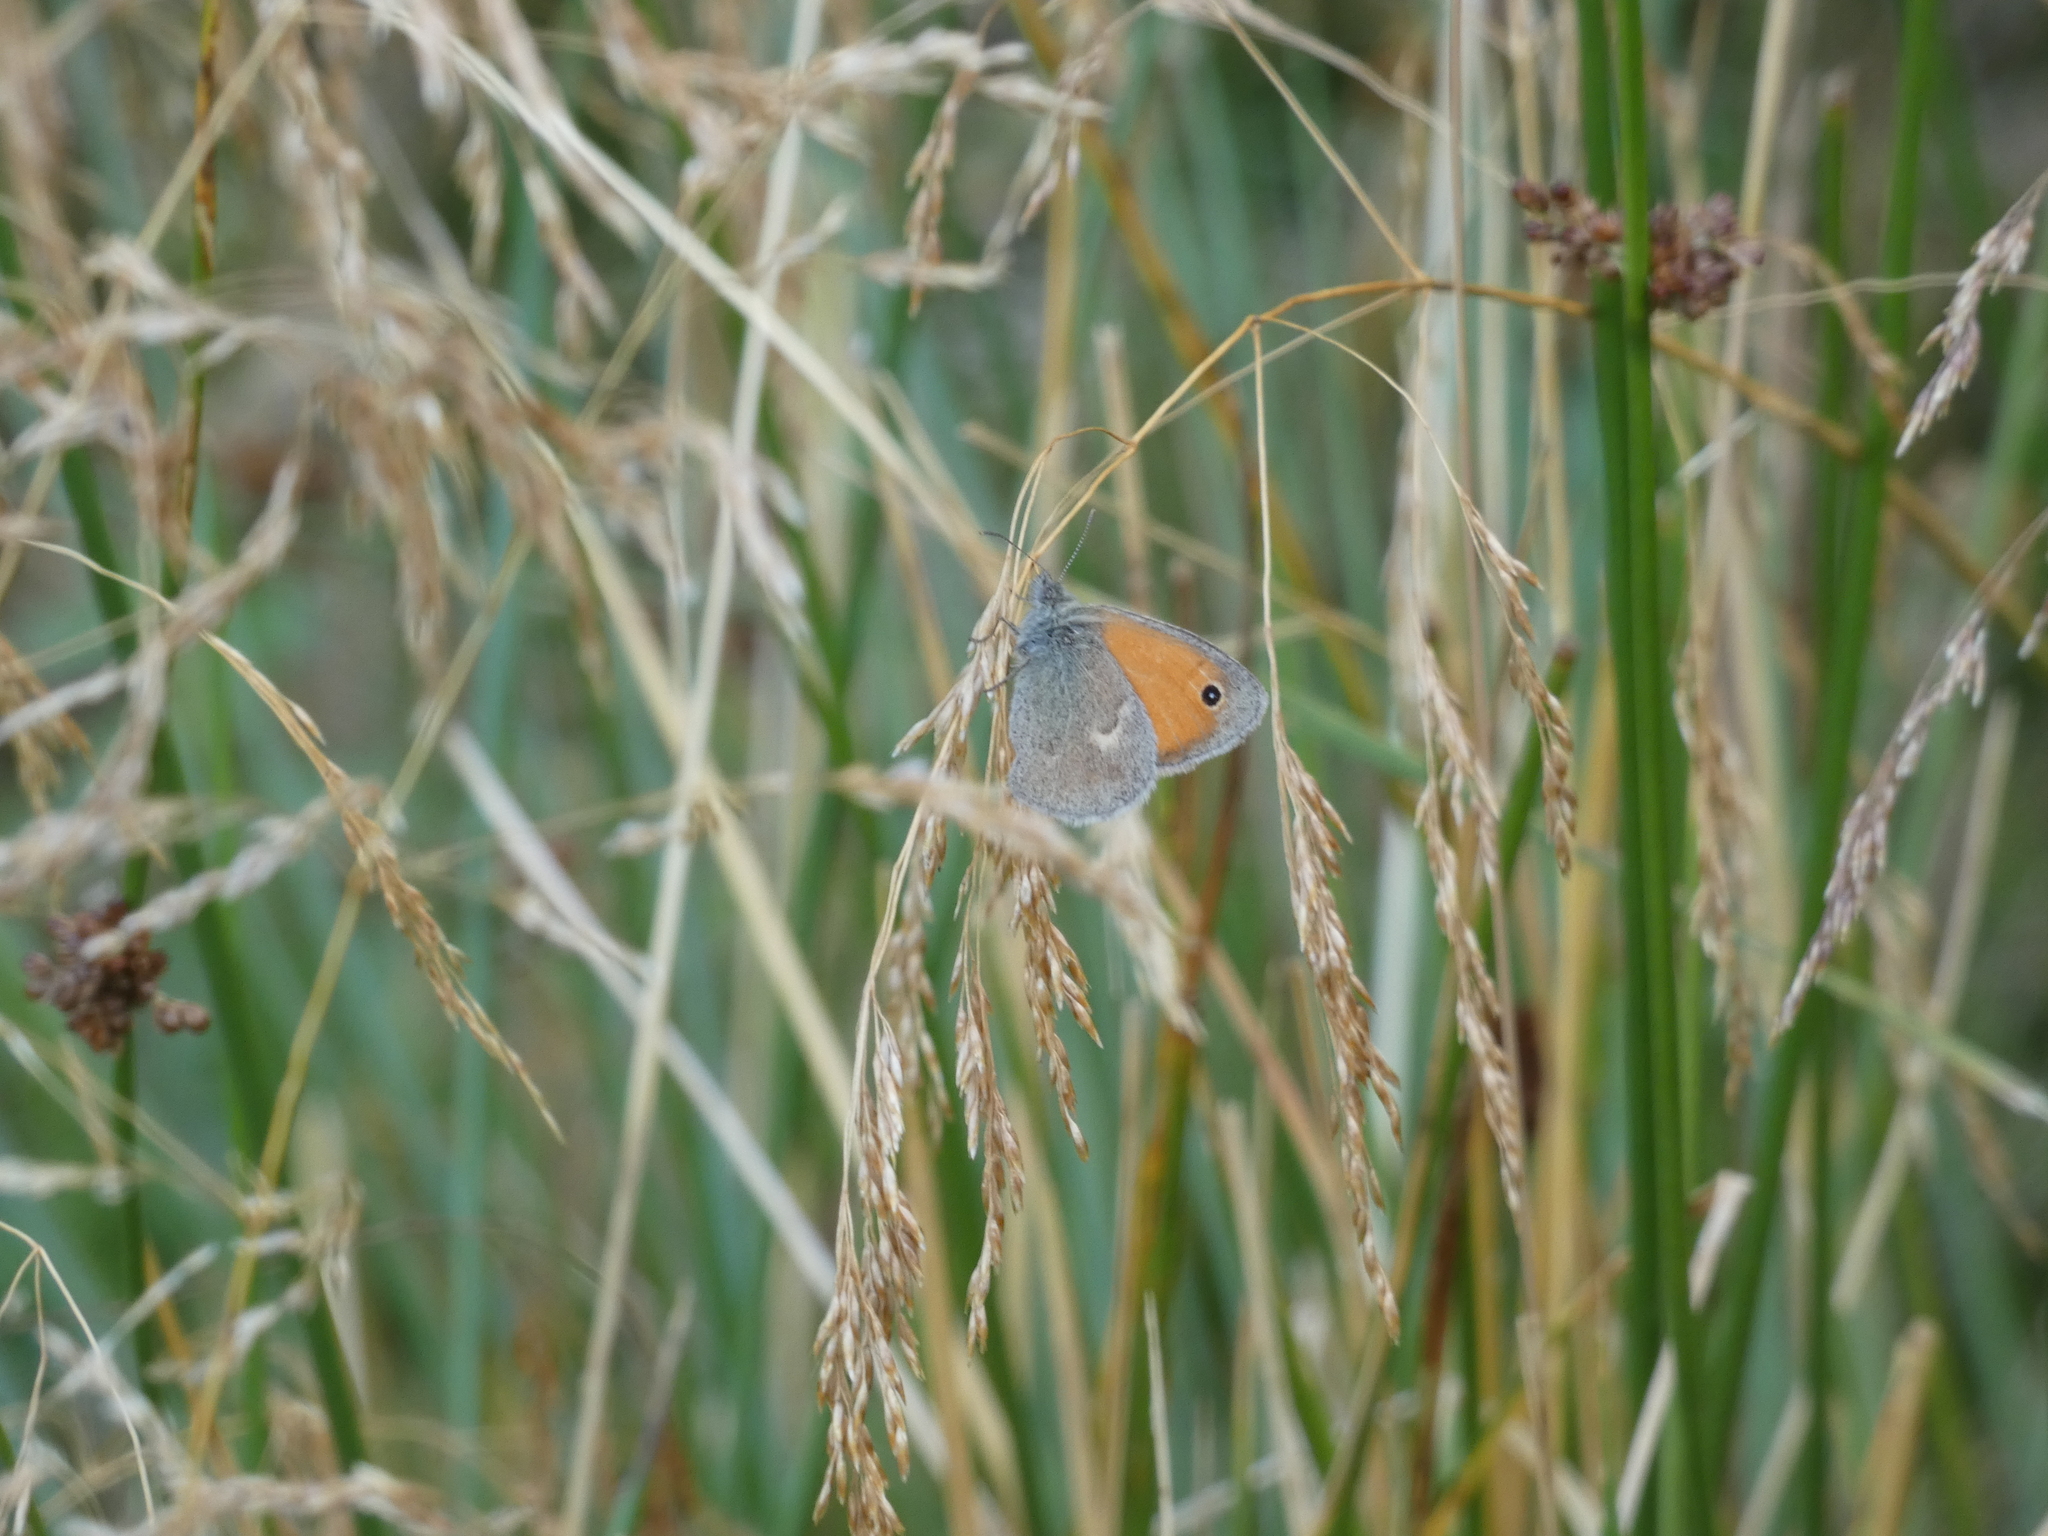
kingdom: Animalia
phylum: Arthropoda
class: Insecta
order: Lepidoptera
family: Nymphalidae
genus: Coenonympha
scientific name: Coenonympha pamphilus
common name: Small heath
